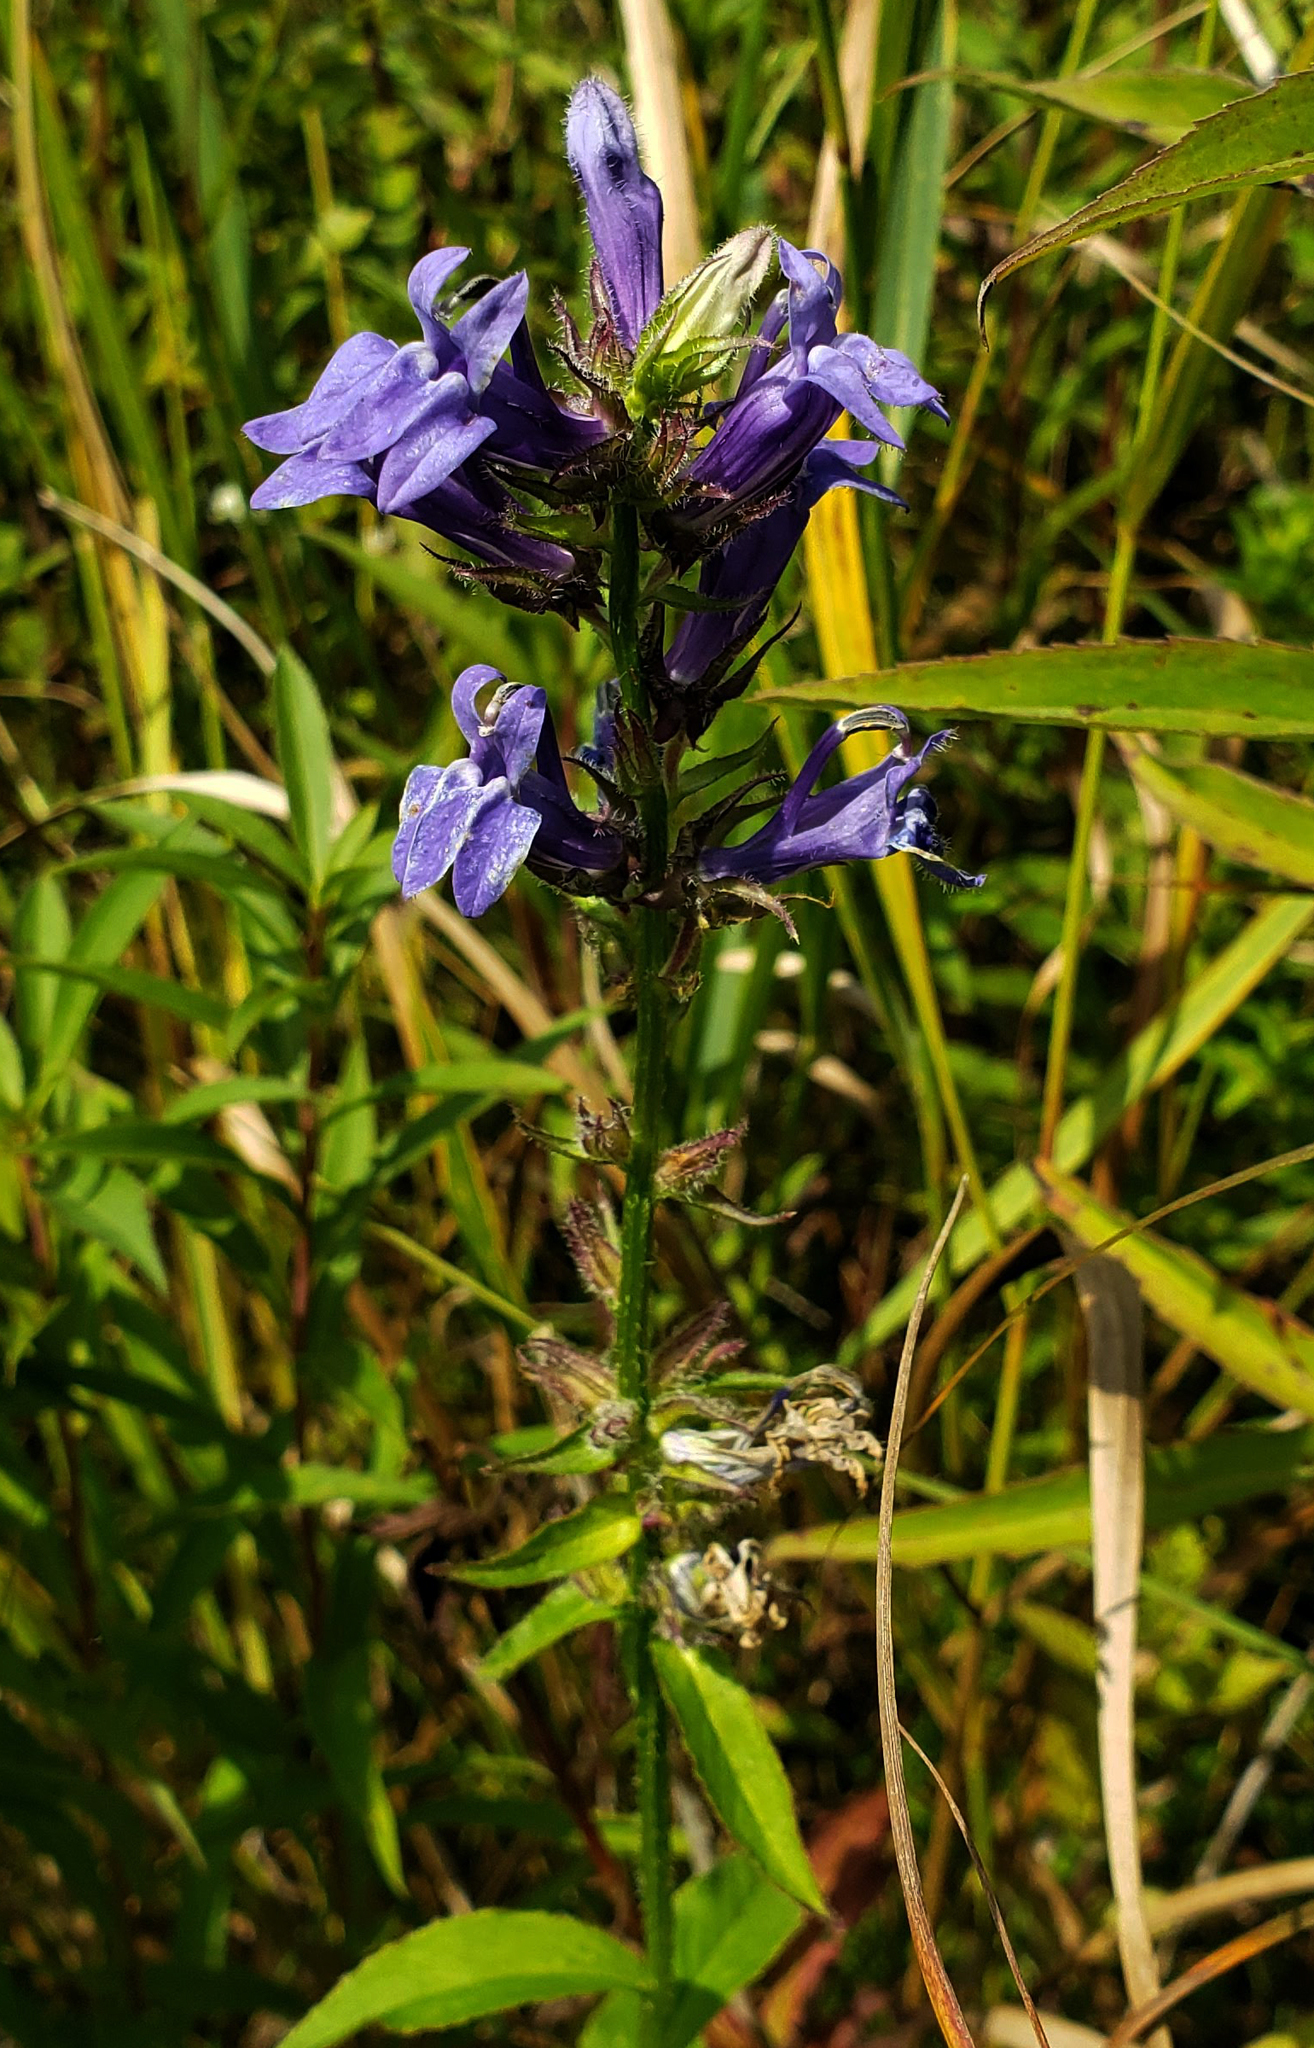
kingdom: Plantae
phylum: Tracheophyta
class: Magnoliopsida
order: Asterales
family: Campanulaceae
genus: Lobelia
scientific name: Lobelia siphilitica
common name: Great lobelia
